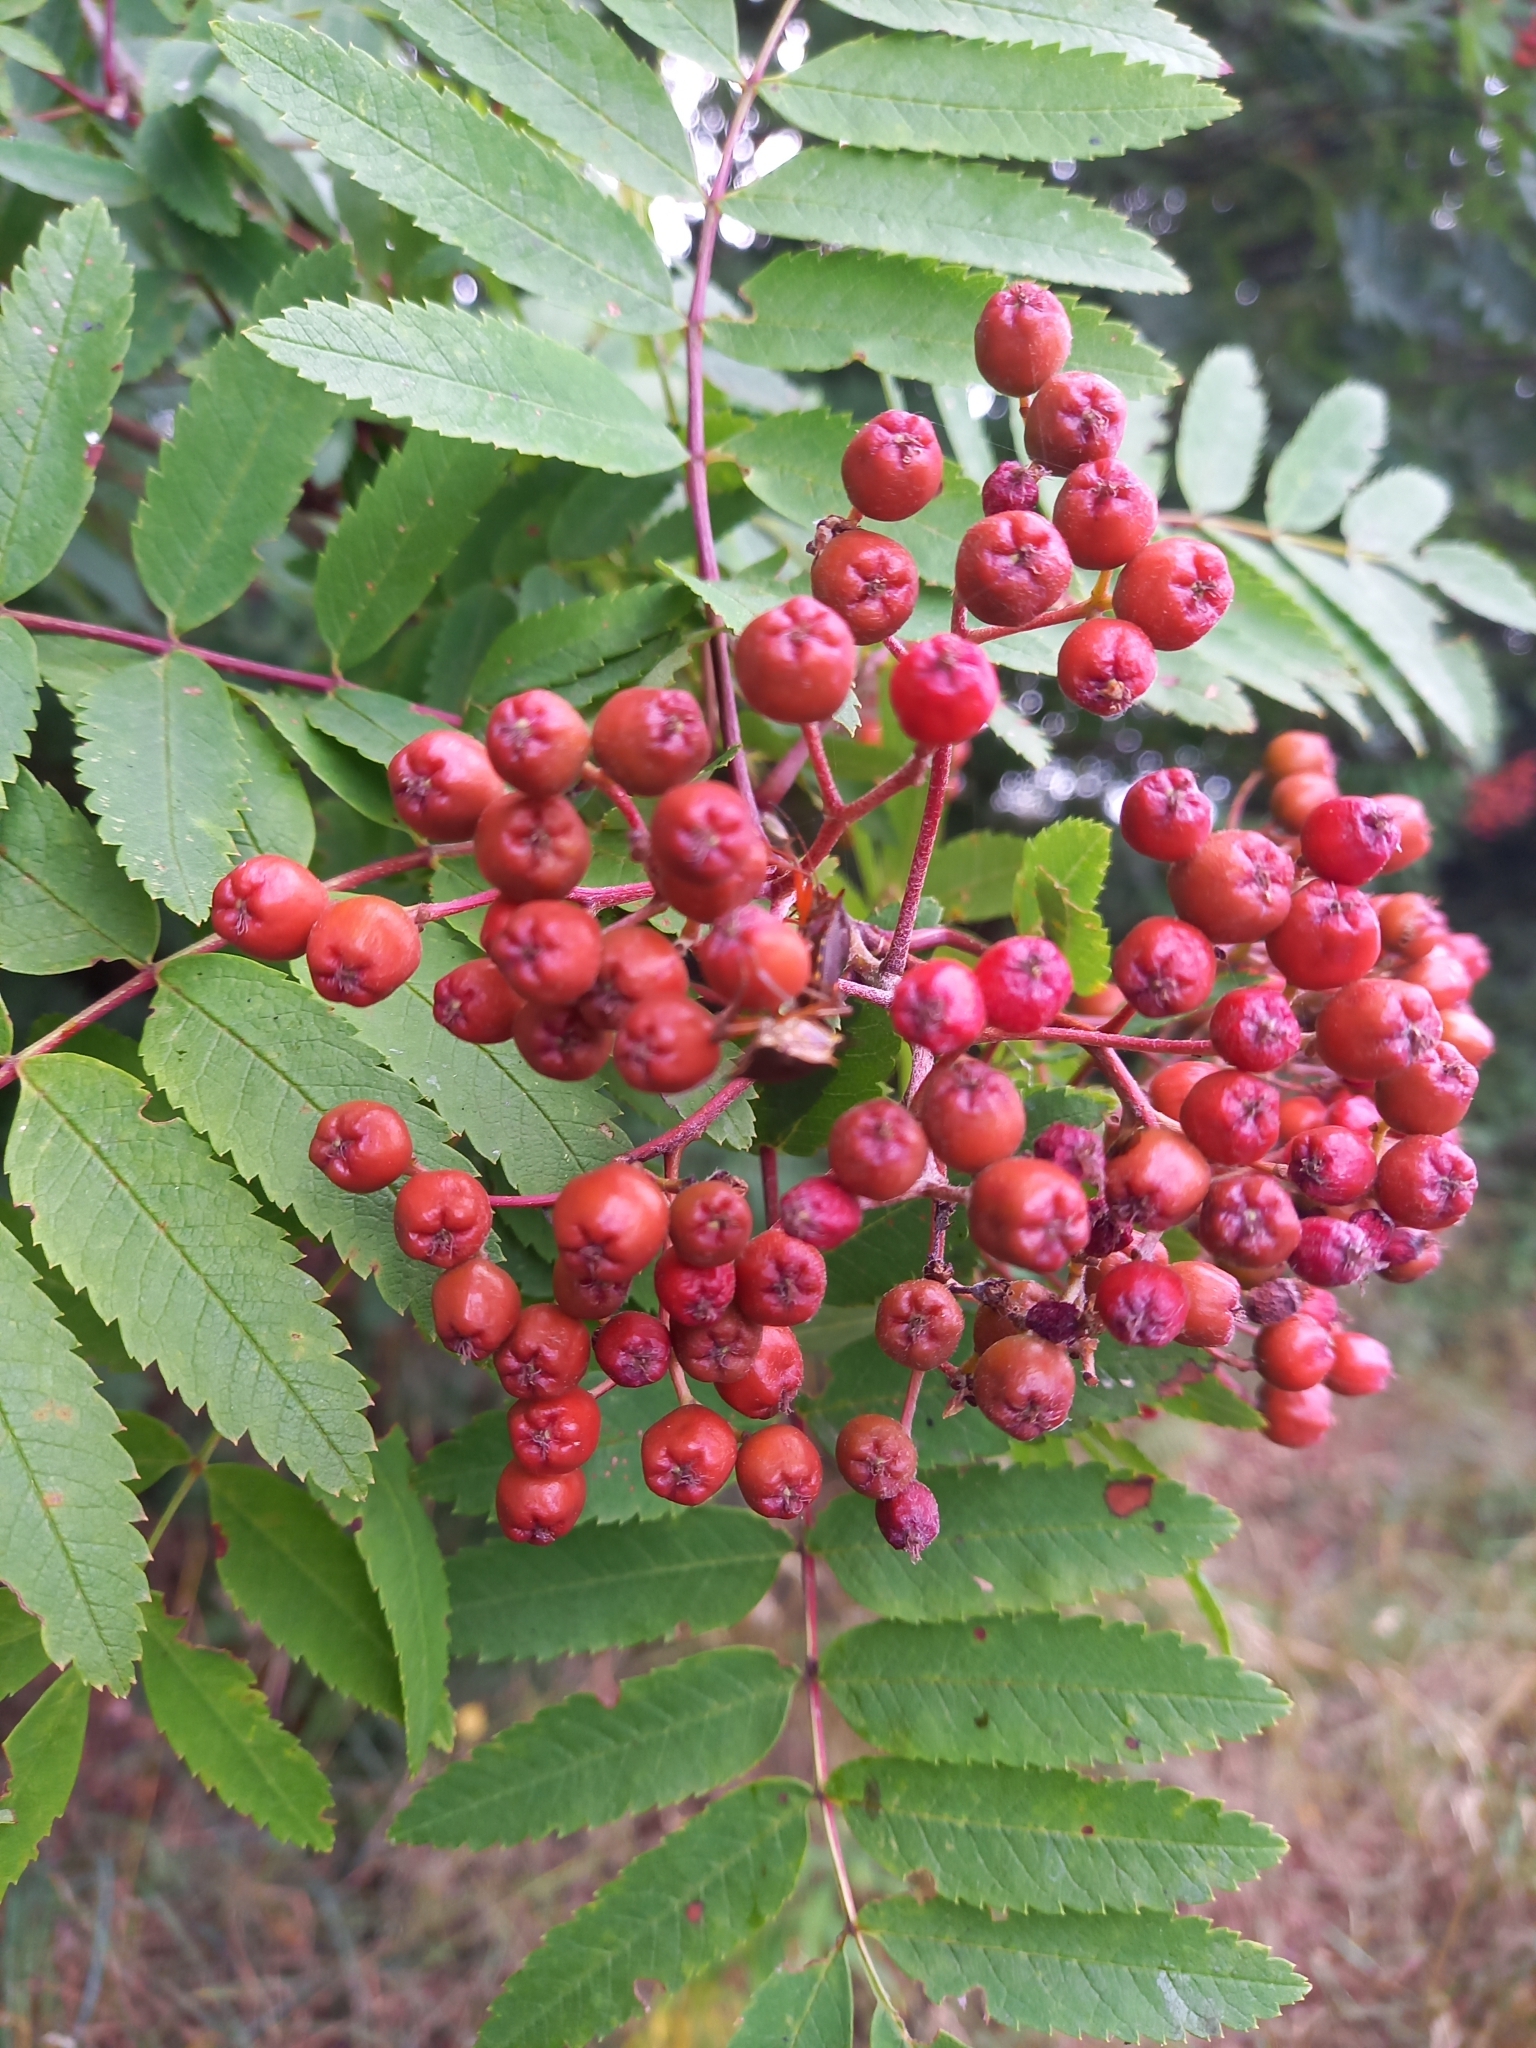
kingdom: Plantae
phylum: Tracheophyta
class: Magnoliopsida
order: Rosales
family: Rosaceae
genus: Sorbus
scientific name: Sorbus aucuparia
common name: Rowan
